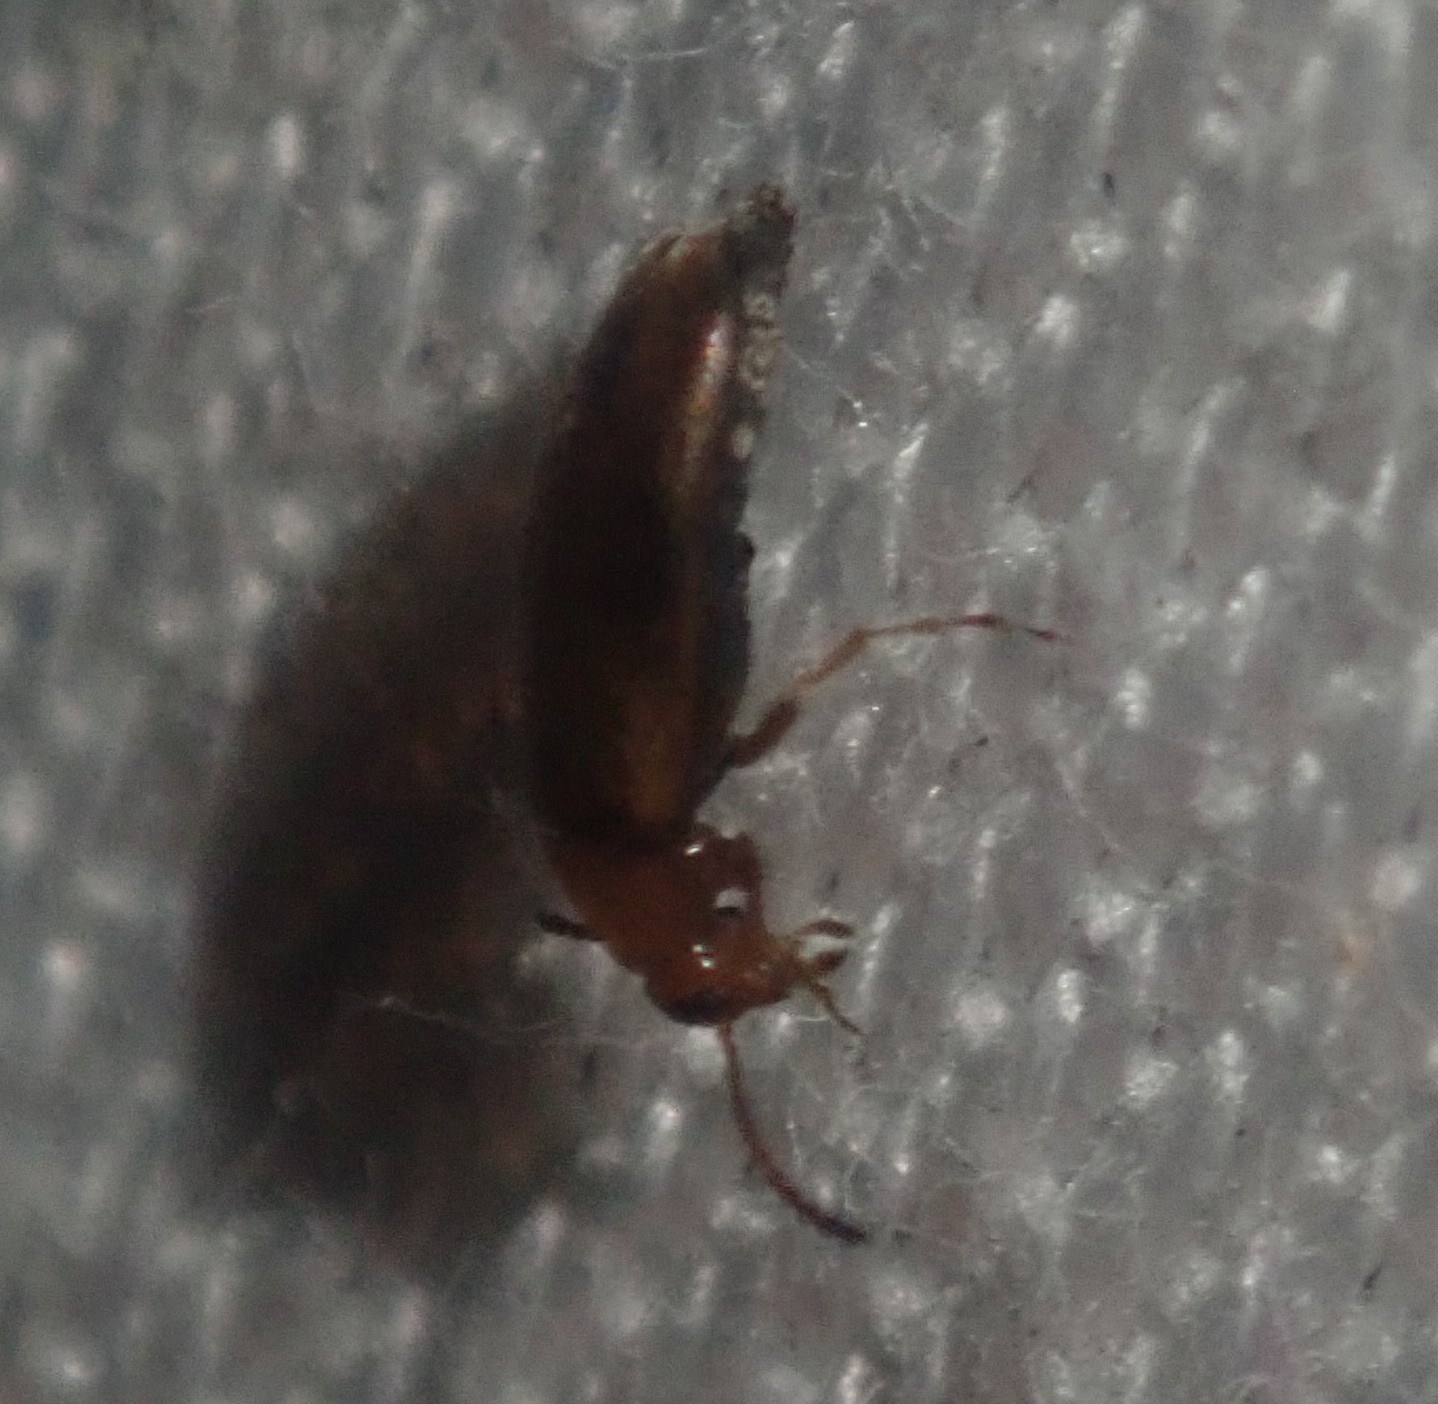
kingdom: Animalia
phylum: Arthropoda
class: Insecta
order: Coleoptera
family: Scraptiidae
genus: Anaspis
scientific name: Anaspis maculata
